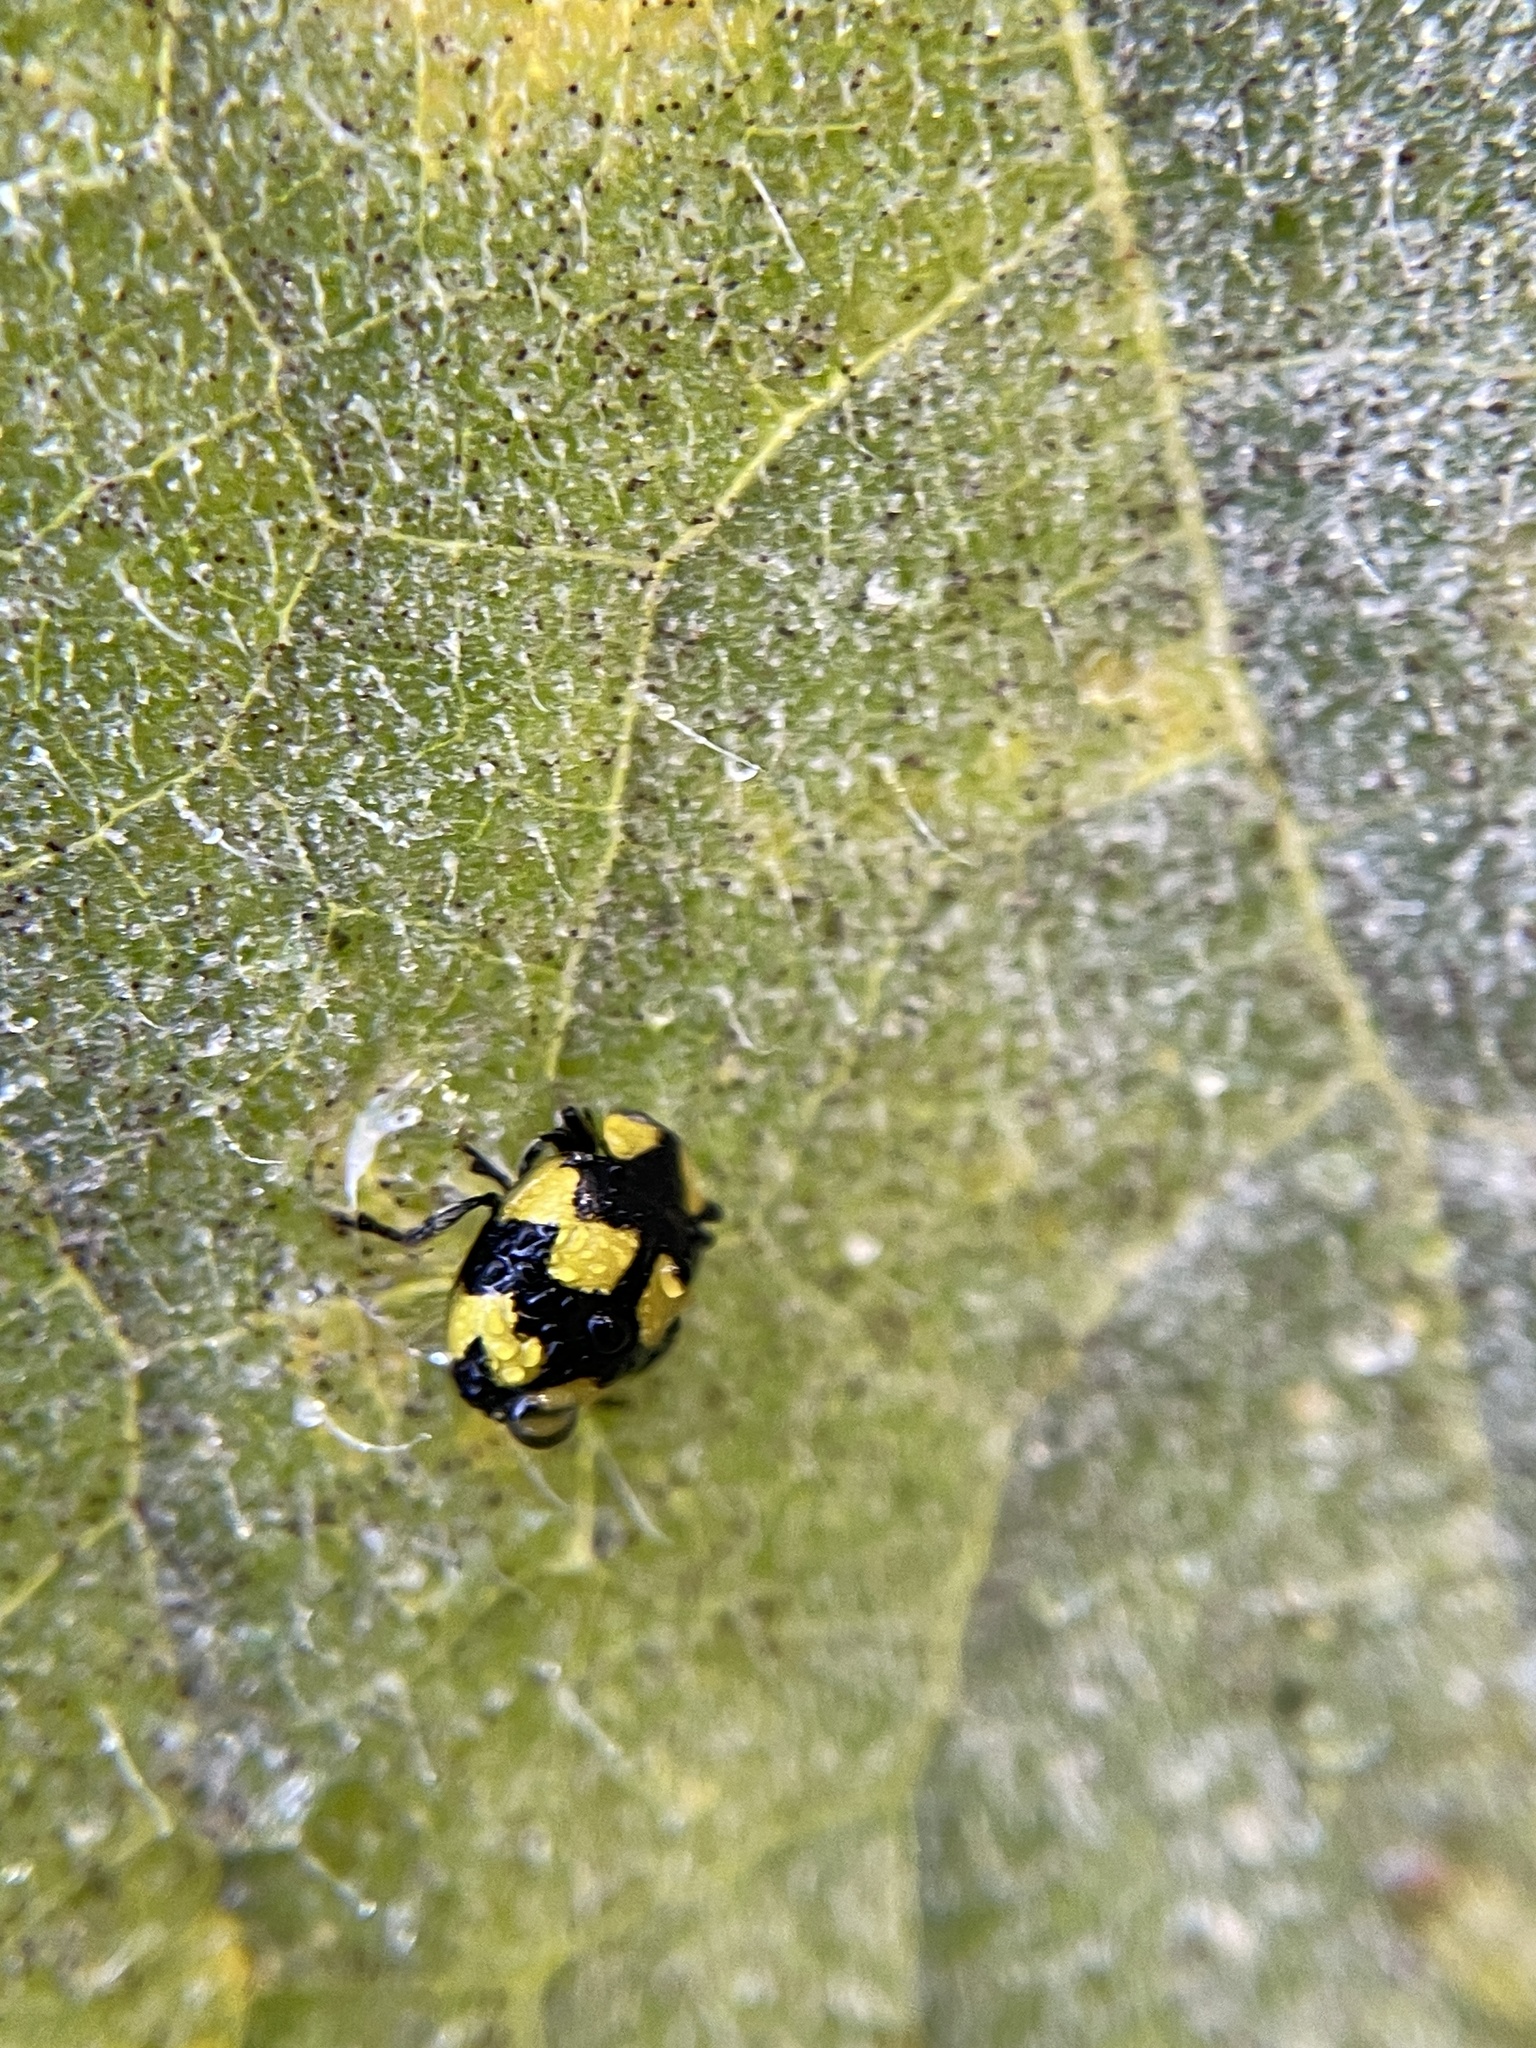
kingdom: Animalia
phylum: Arthropoda
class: Insecta
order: Coleoptera
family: Coccinellidae
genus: Illeis
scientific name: Illeis galbula
